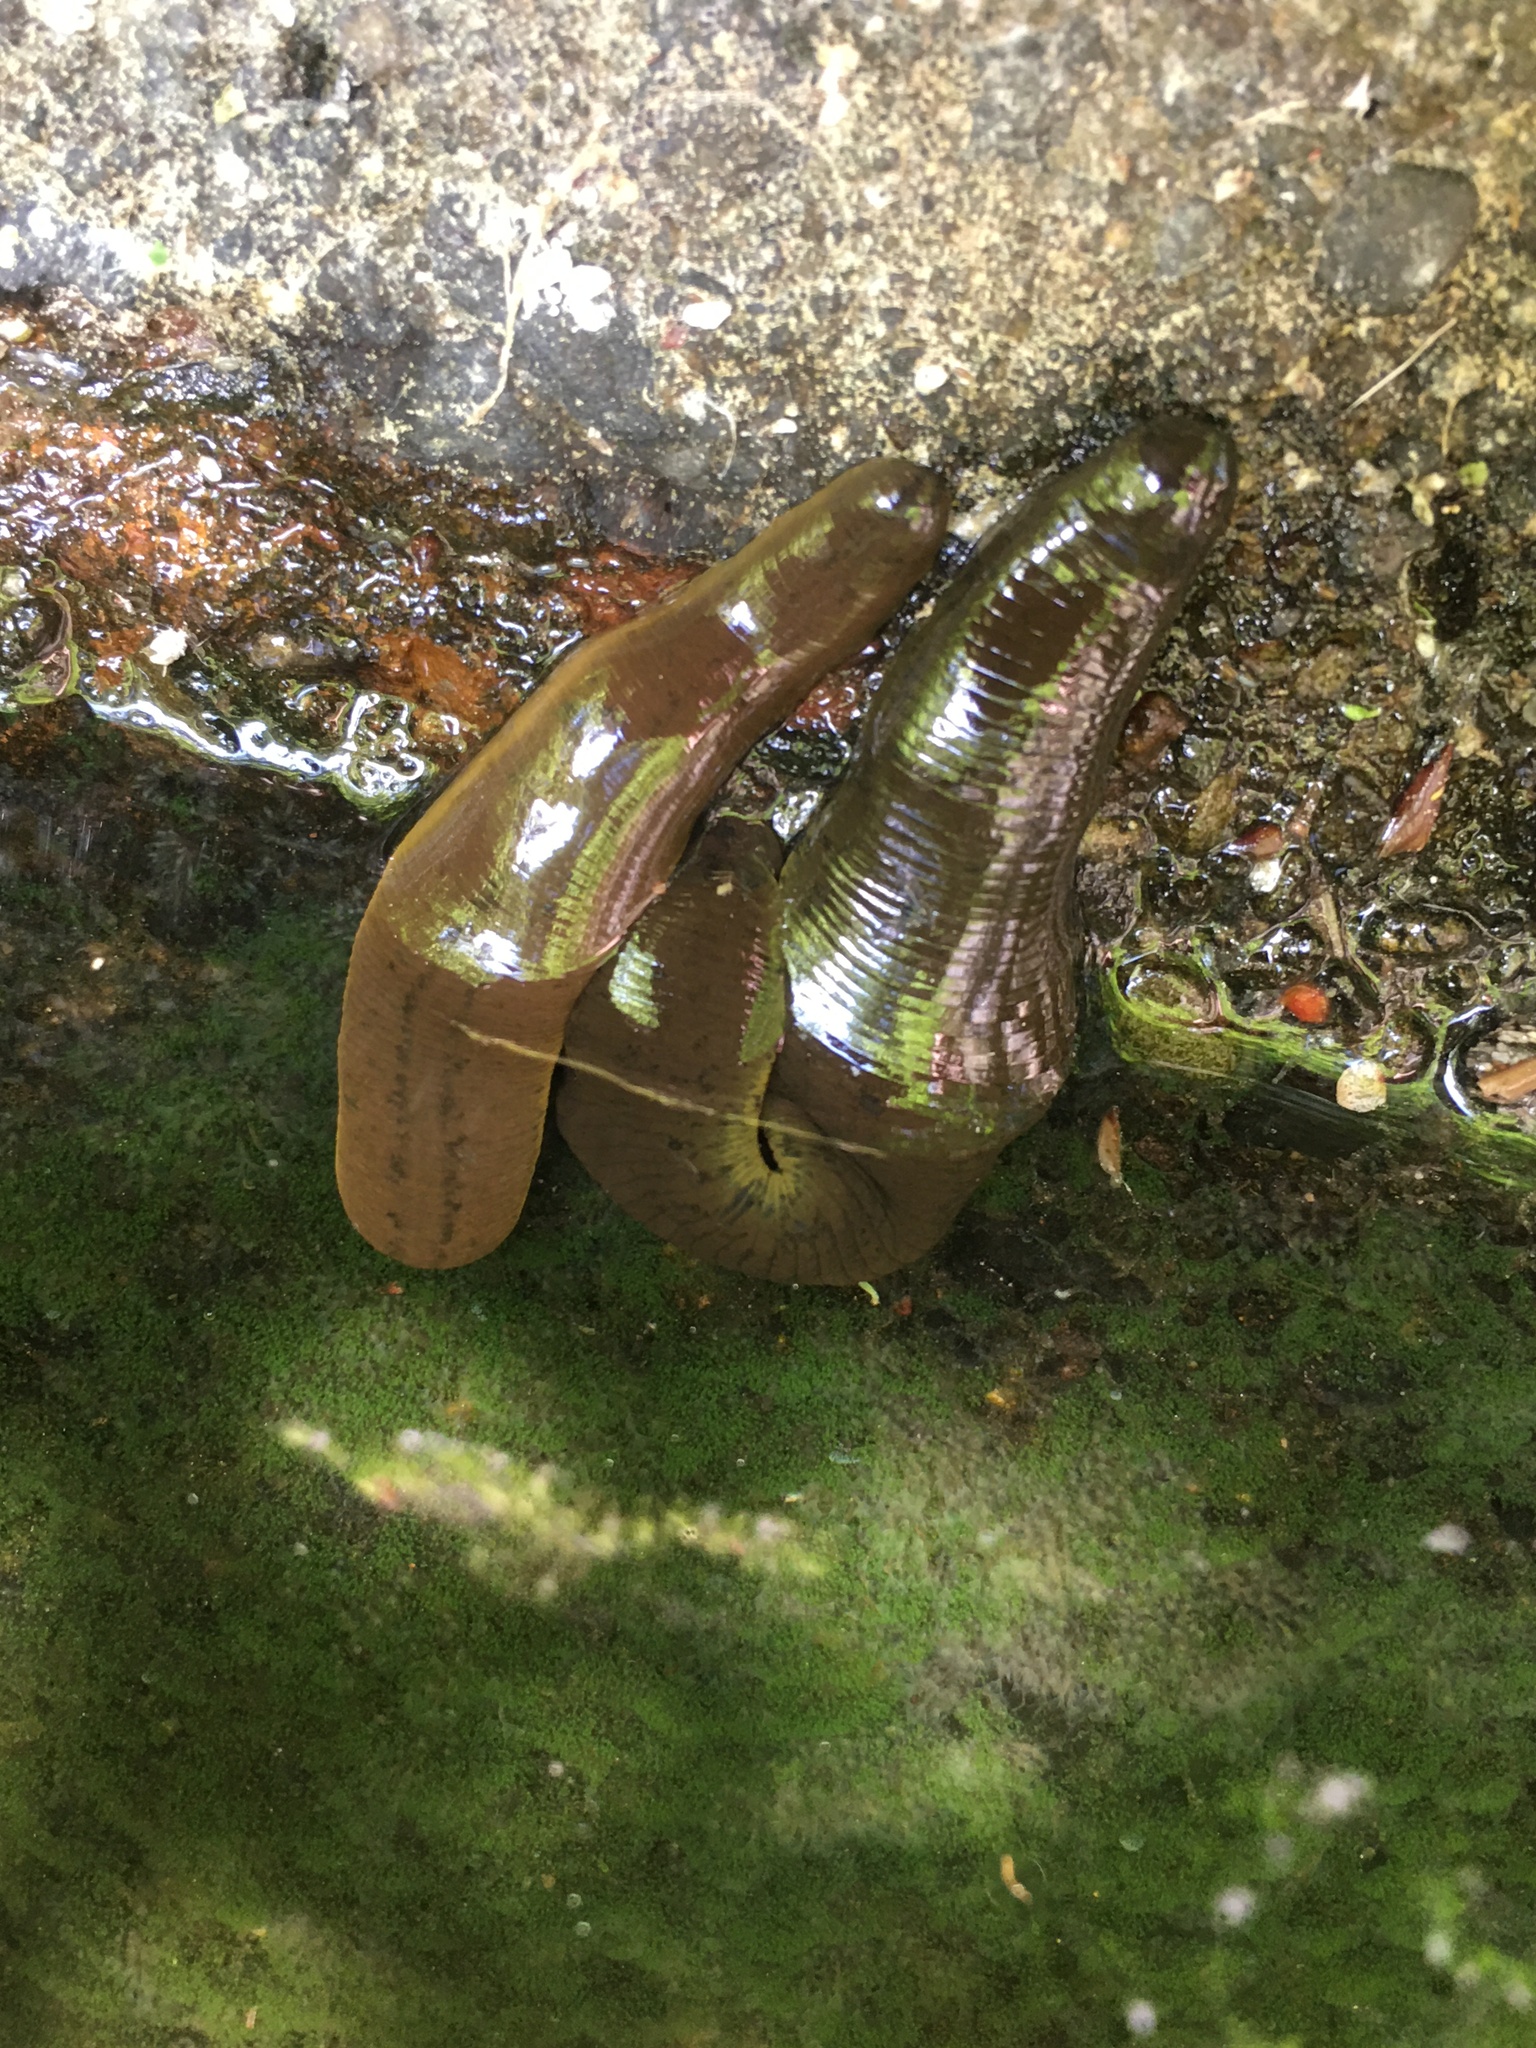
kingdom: Animalia
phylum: Annelida
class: Clitellata
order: Arhynchobdellida
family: Haemopidae
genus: Haemopis
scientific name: Haemopis sanguisuga
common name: Horse leech
